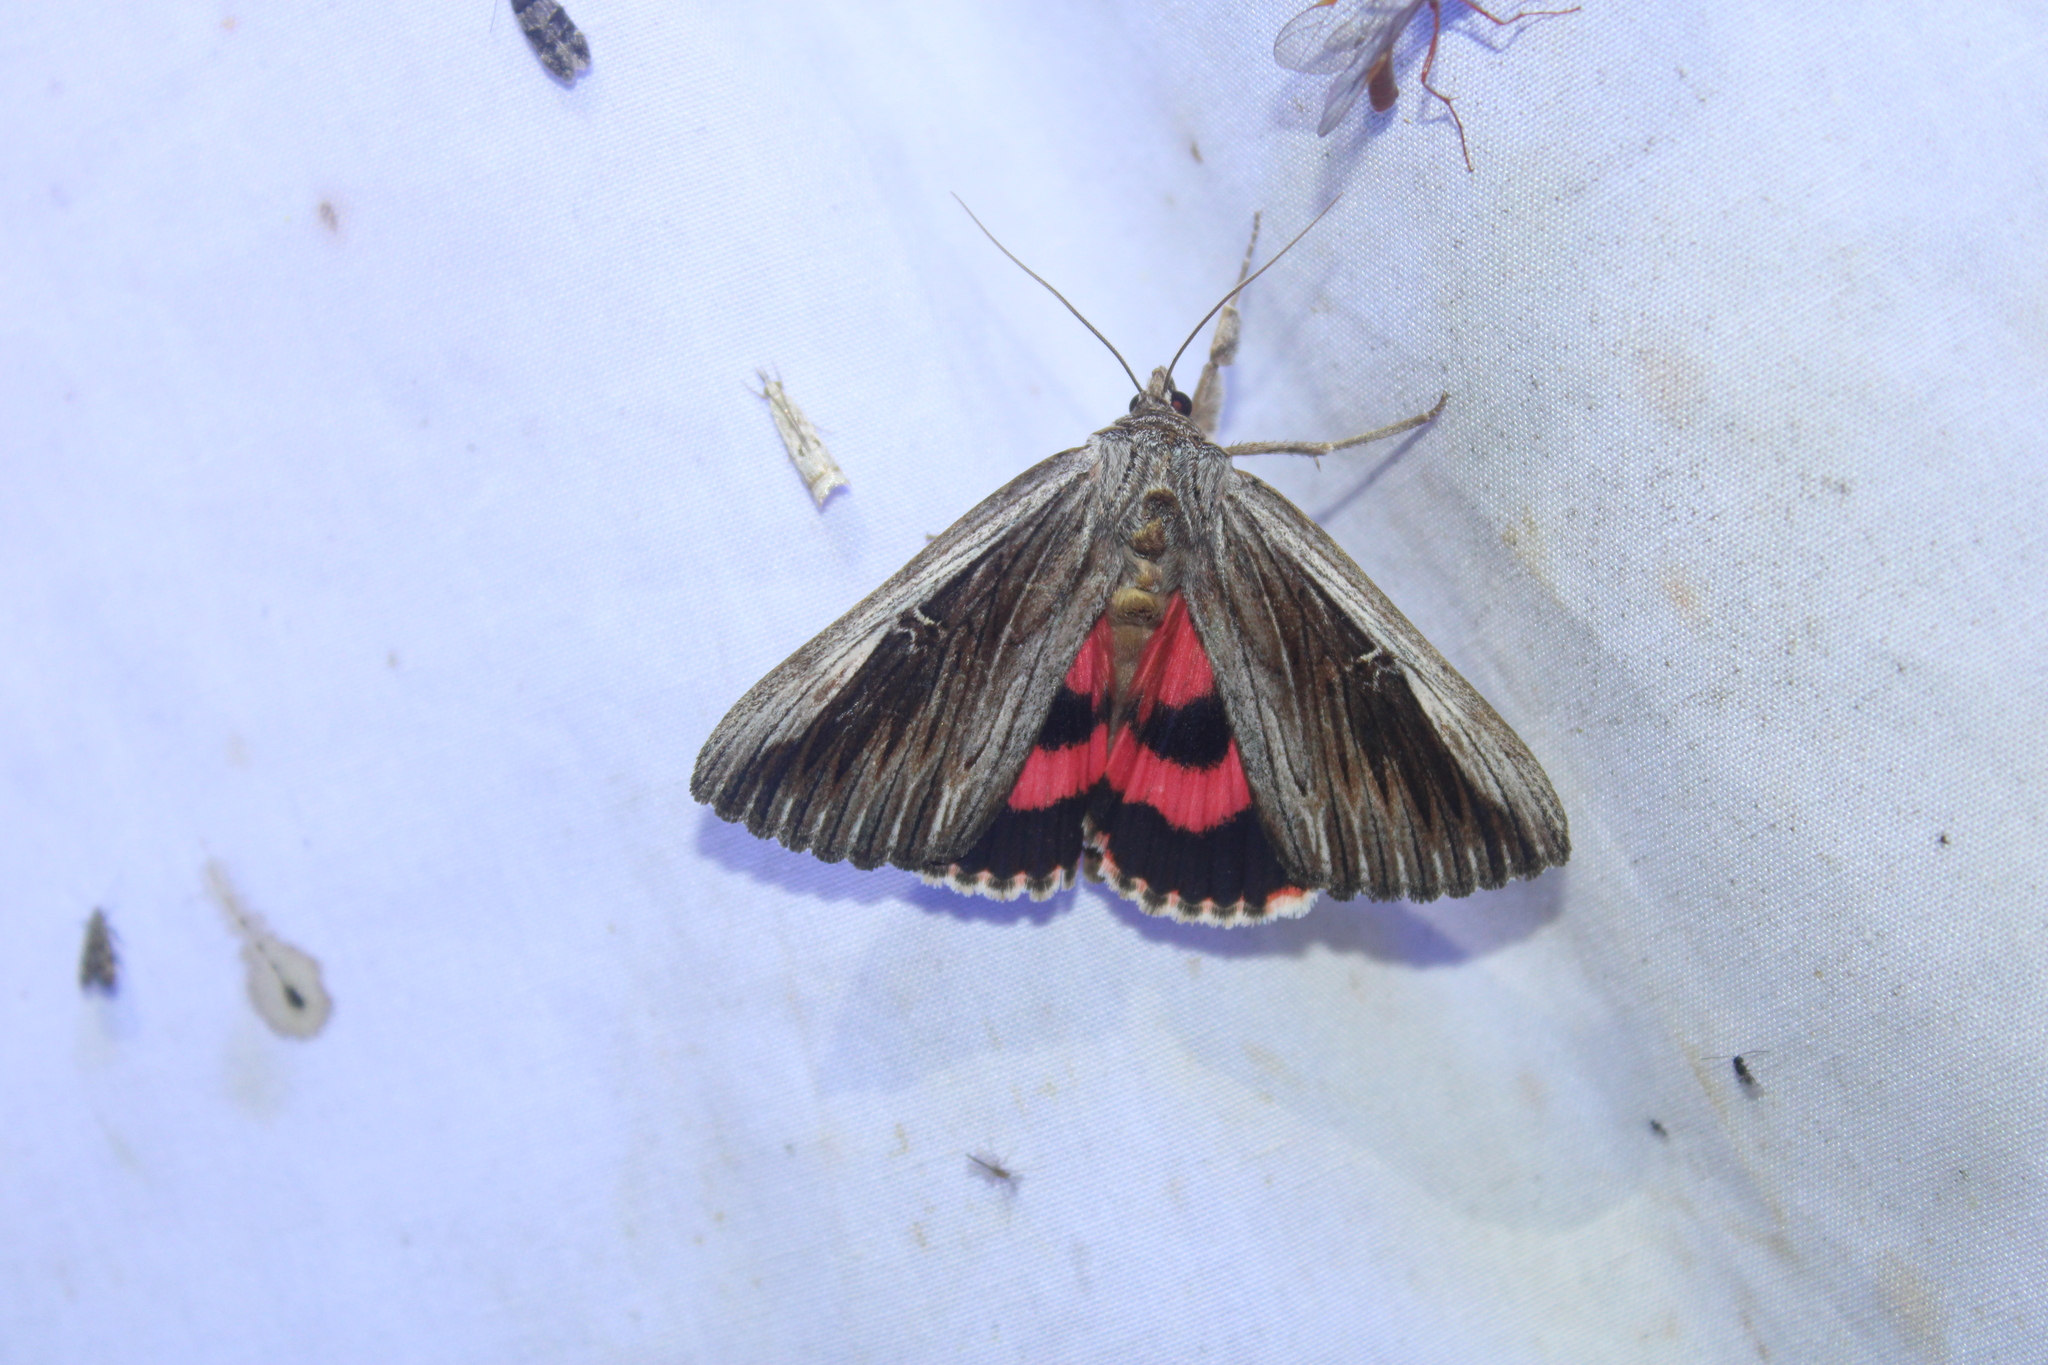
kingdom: Animalia
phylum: Arthropoda
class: Insecta
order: Lepidoptera
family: Erebidae
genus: Catocala
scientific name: Catocala herodias
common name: Pine barrens underwing
